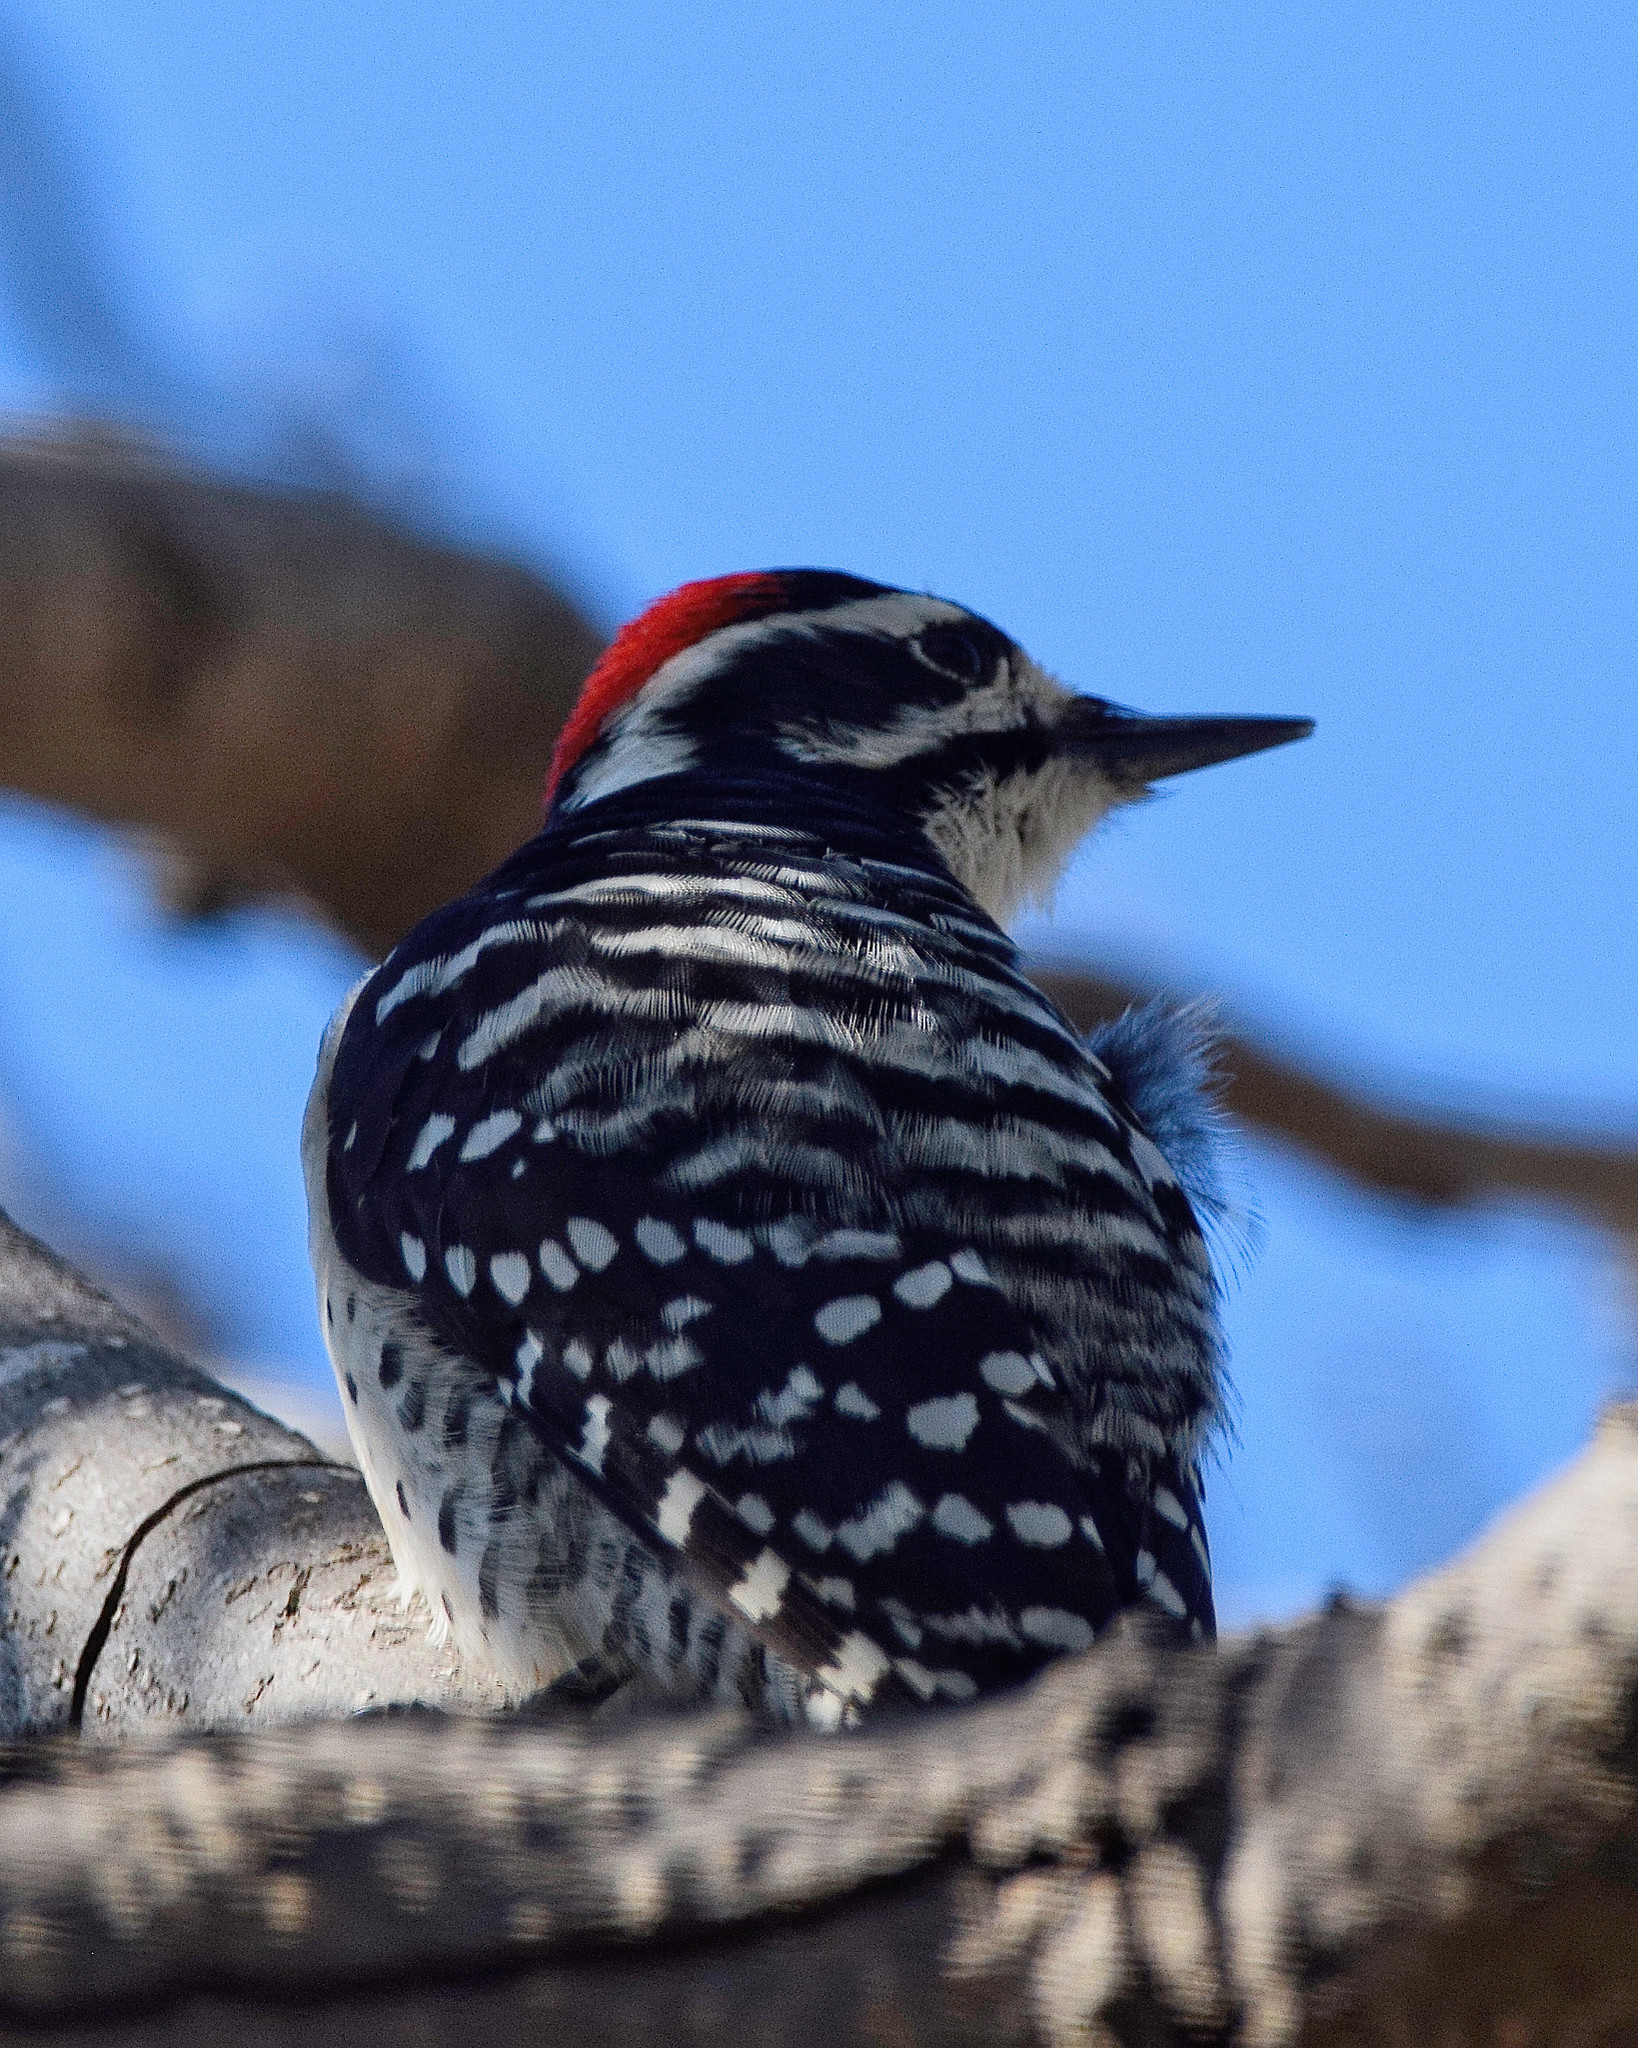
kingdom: Animalia
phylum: Chordata
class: Aves
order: Piciformes
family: Picidae
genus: Dryobates
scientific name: Dryobates nuttallii
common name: Nuttall's woodpecker
